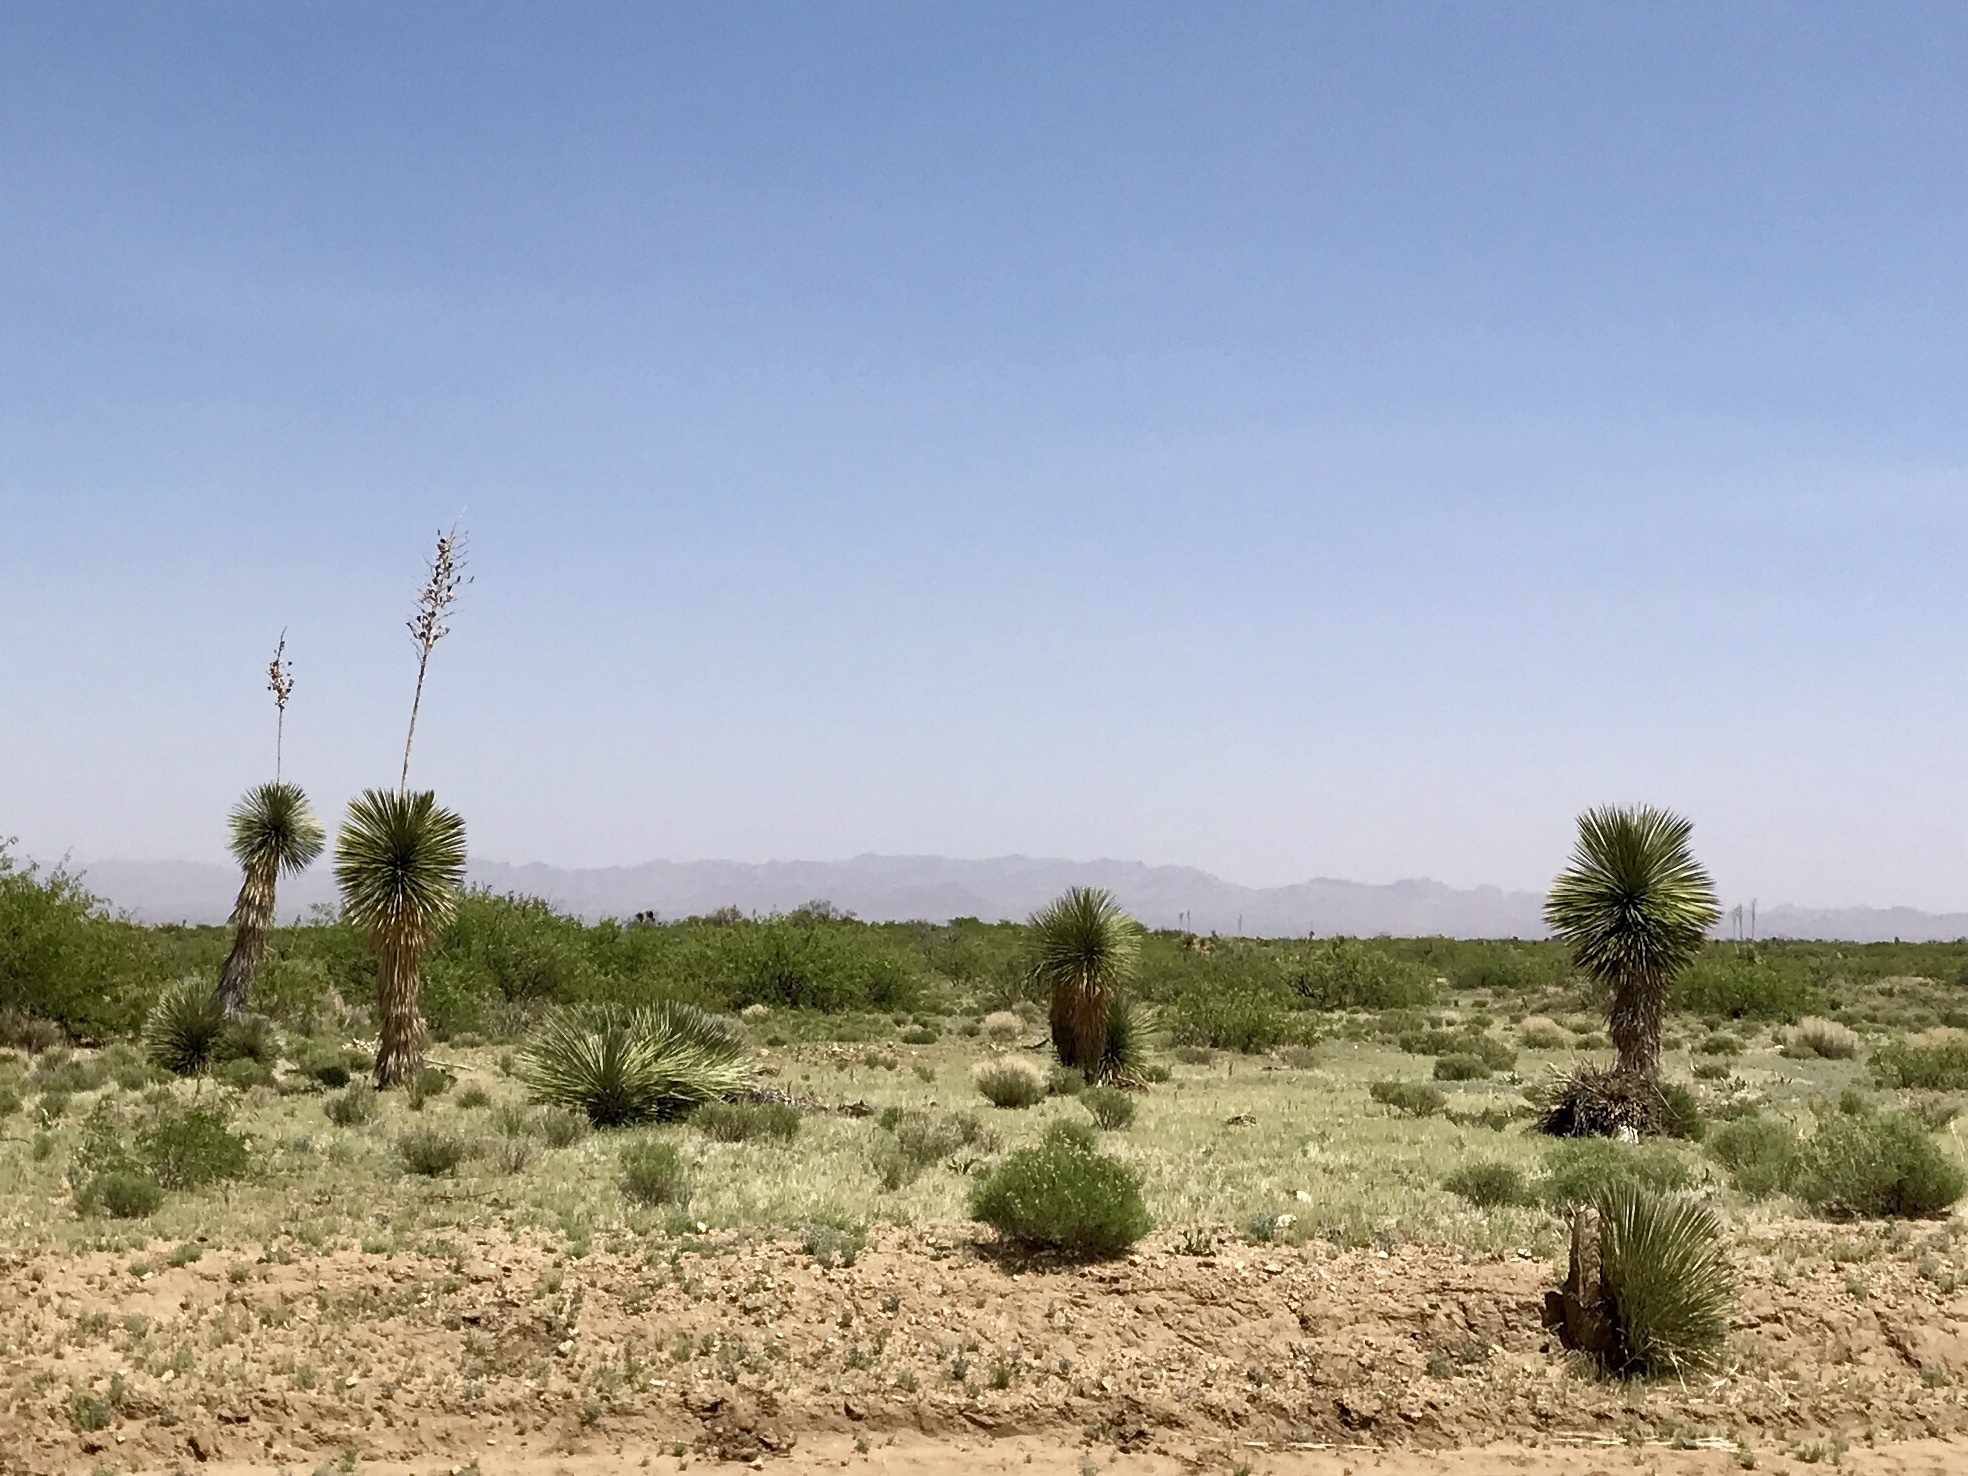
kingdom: Plantae
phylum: Tracheophyta
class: Liliopsida
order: Asparagales
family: Asparagaceae
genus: Yucca
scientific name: Yucca elata
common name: Palmella
